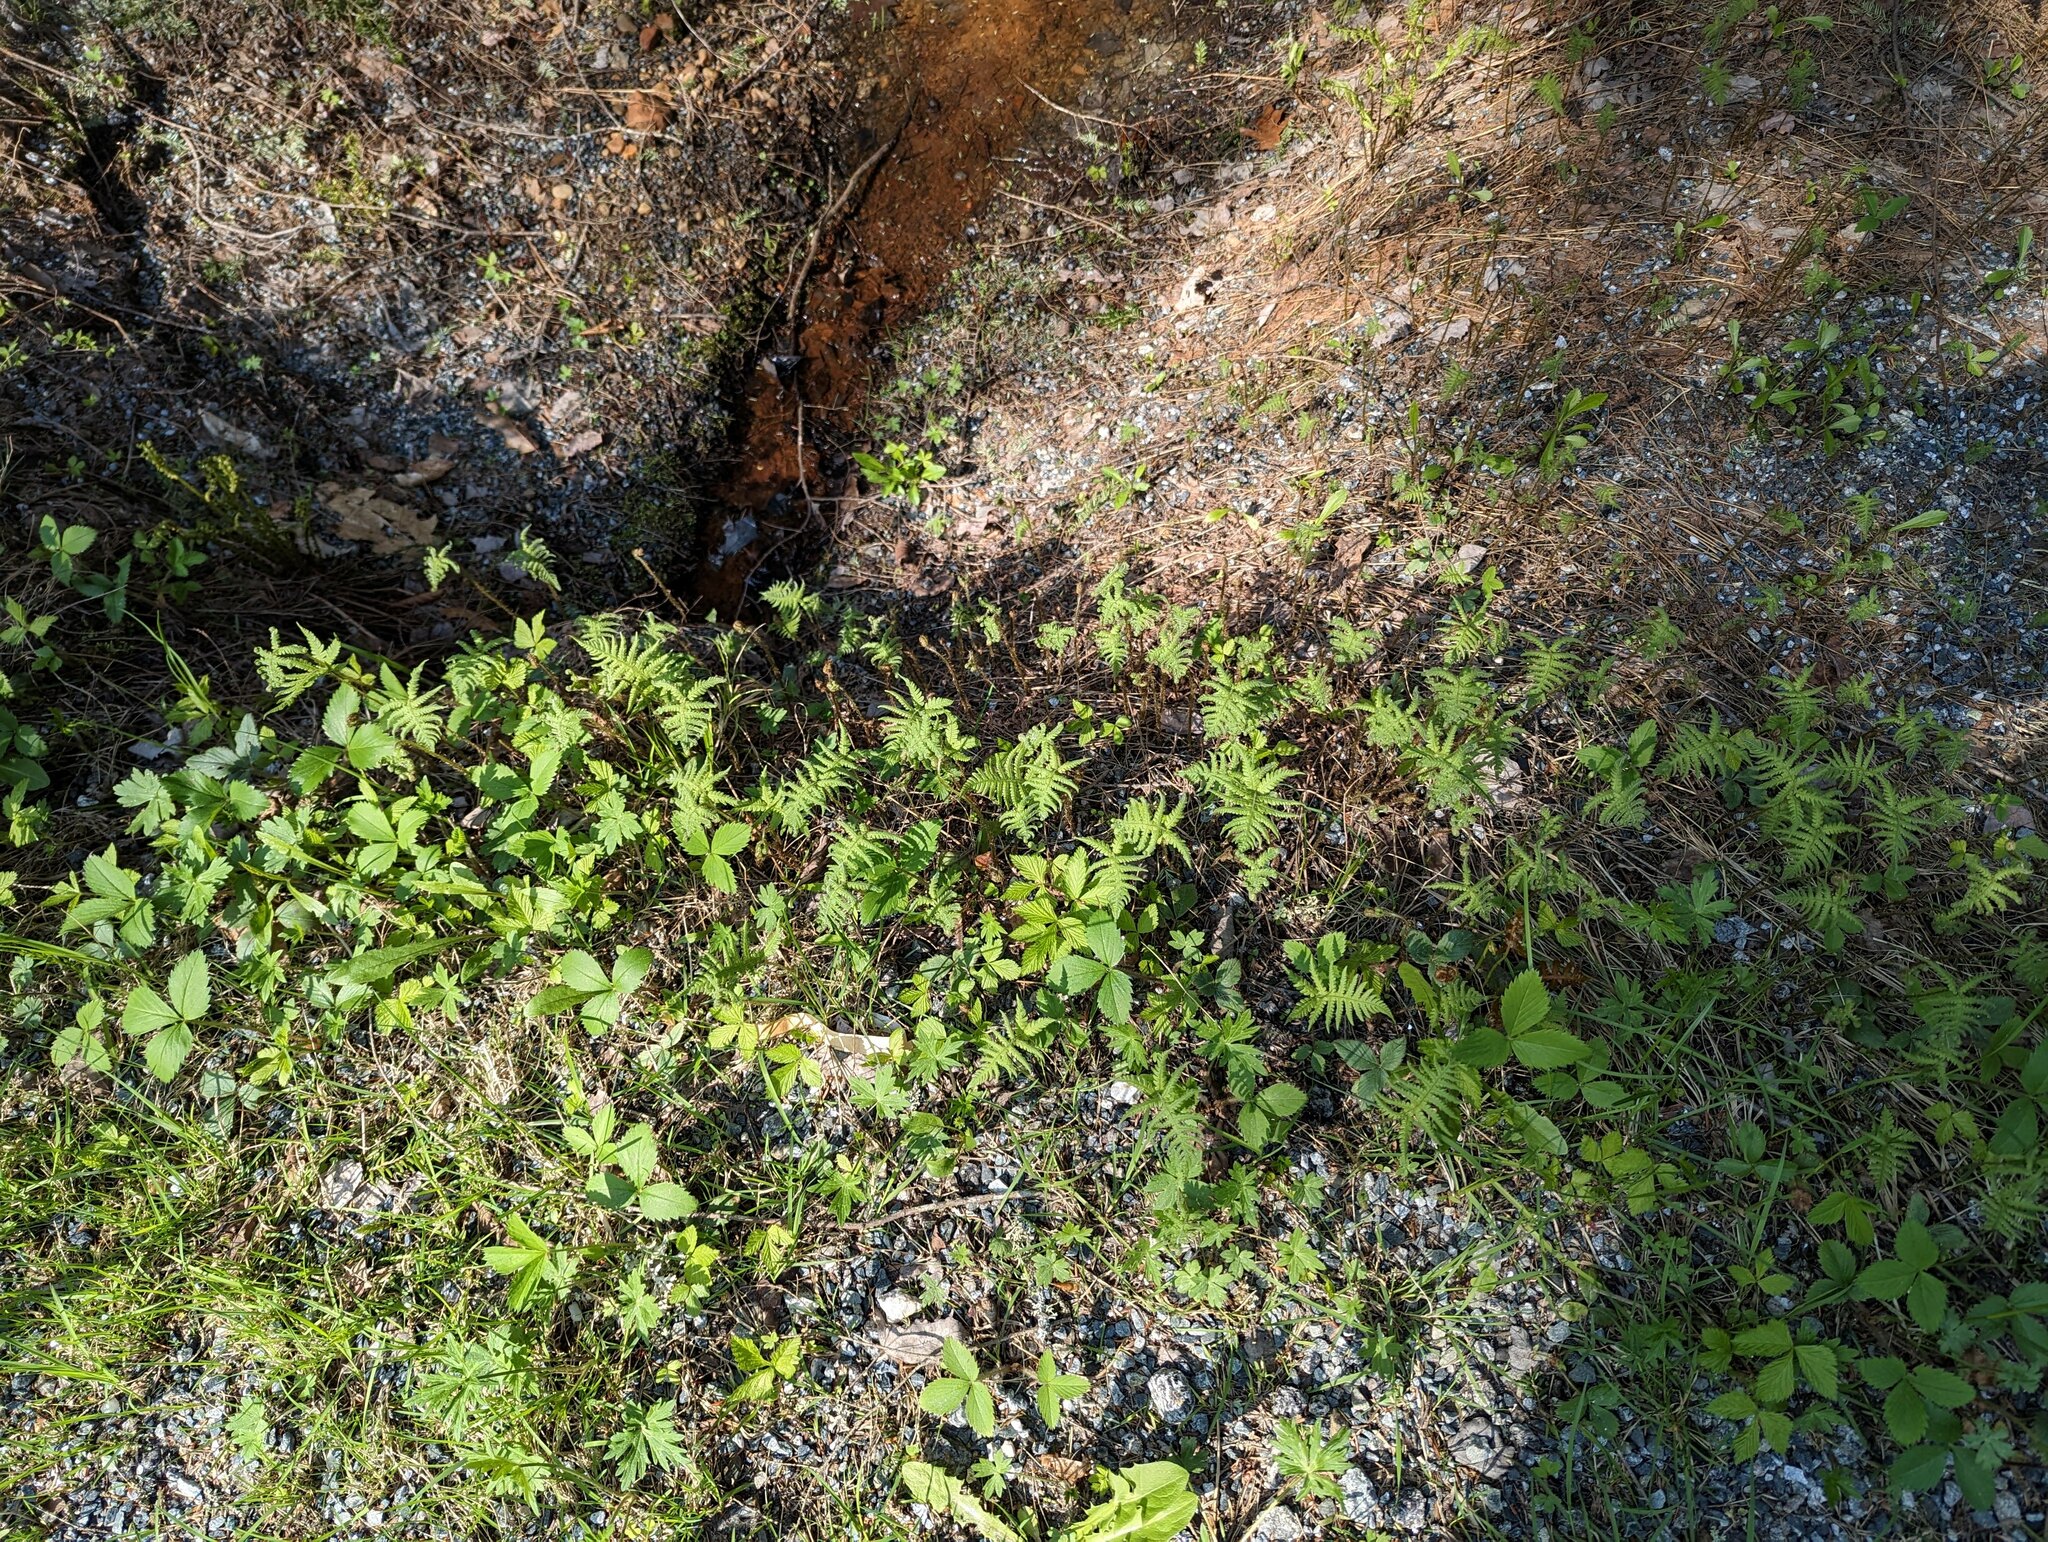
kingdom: Plantae
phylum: Tracheophyta
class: Polypodiopsida
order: Polypodiales
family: Thelypteridaceae
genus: Phegopteris
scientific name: Phegopteris connectilis
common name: Beech fern
